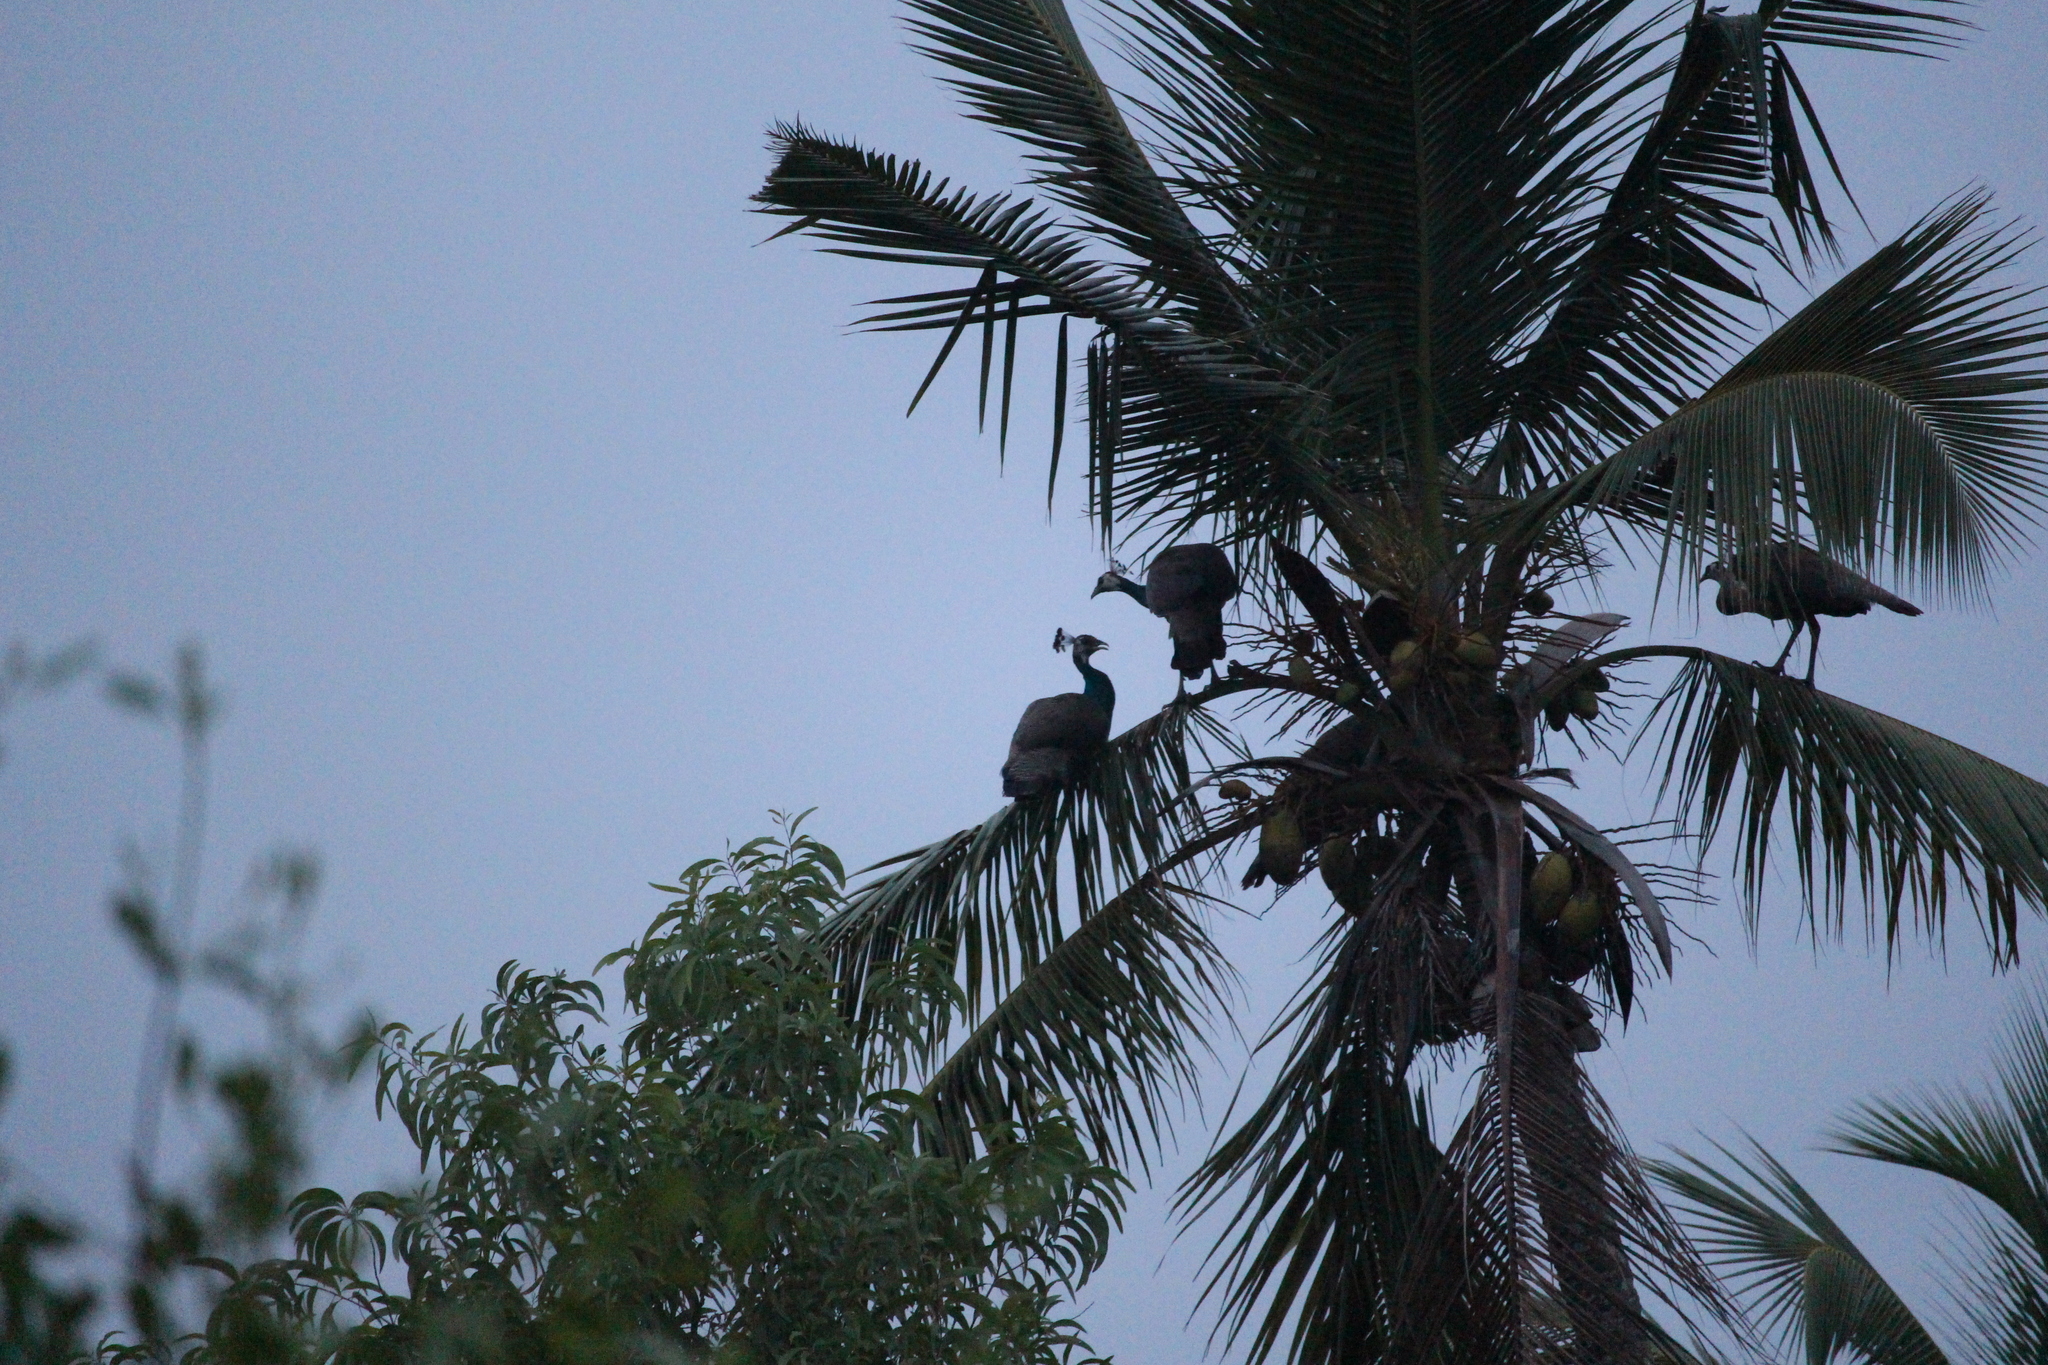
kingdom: Animalia
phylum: Chordata
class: Aves
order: Galliformes
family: Phasianidae
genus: Pavo
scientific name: Pavo cristatus
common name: Indian peafowl
